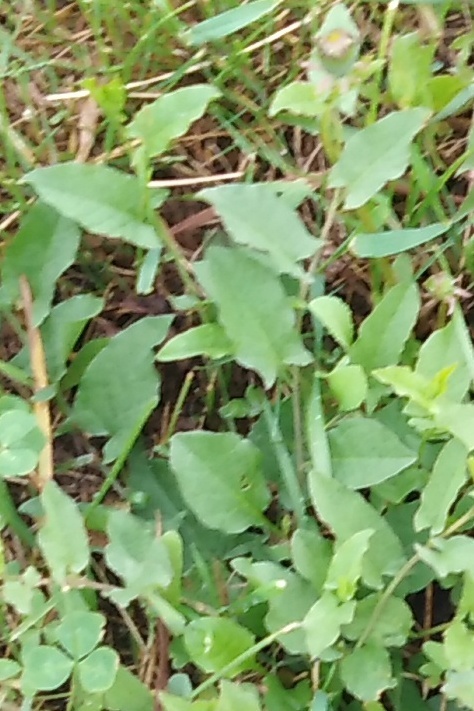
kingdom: Plantae
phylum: Tracheophyta
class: Magnoliopsida
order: Solanales
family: Convolvulaceae
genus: Convolvulus
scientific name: Convolvulus arvensis
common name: Field bindweed
